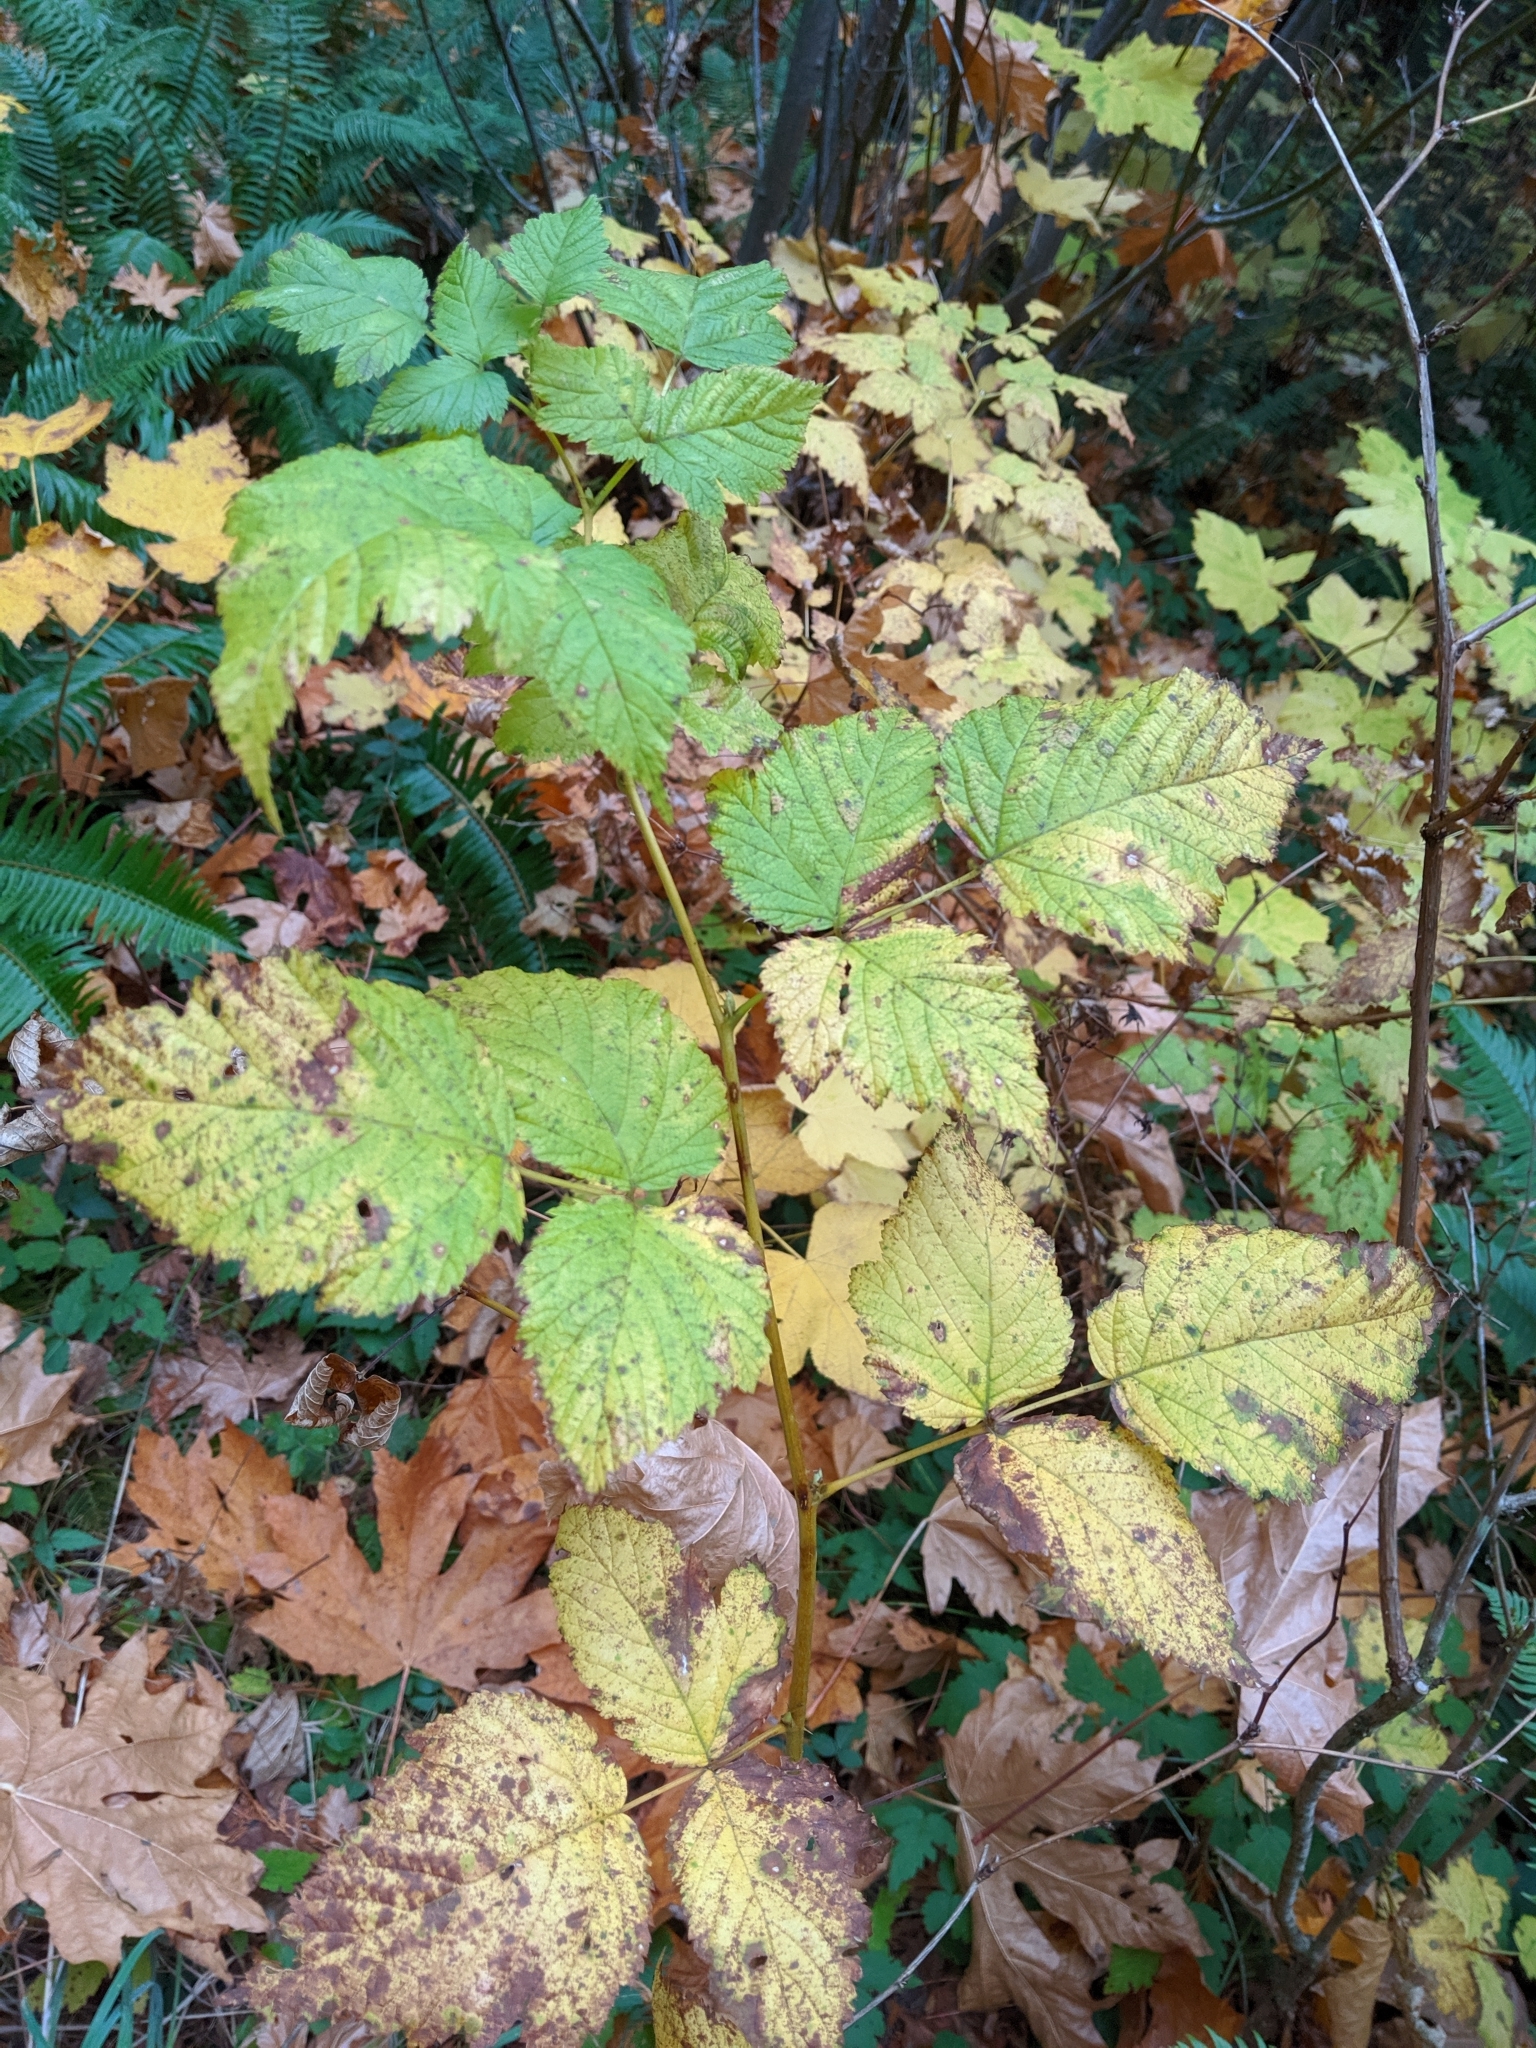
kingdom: Plantae
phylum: Tracheophyta
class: Magnoliopsida
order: Rosales
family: Rosaceae
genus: Rubus
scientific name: Rubus spectabilis
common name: Salmonberry
